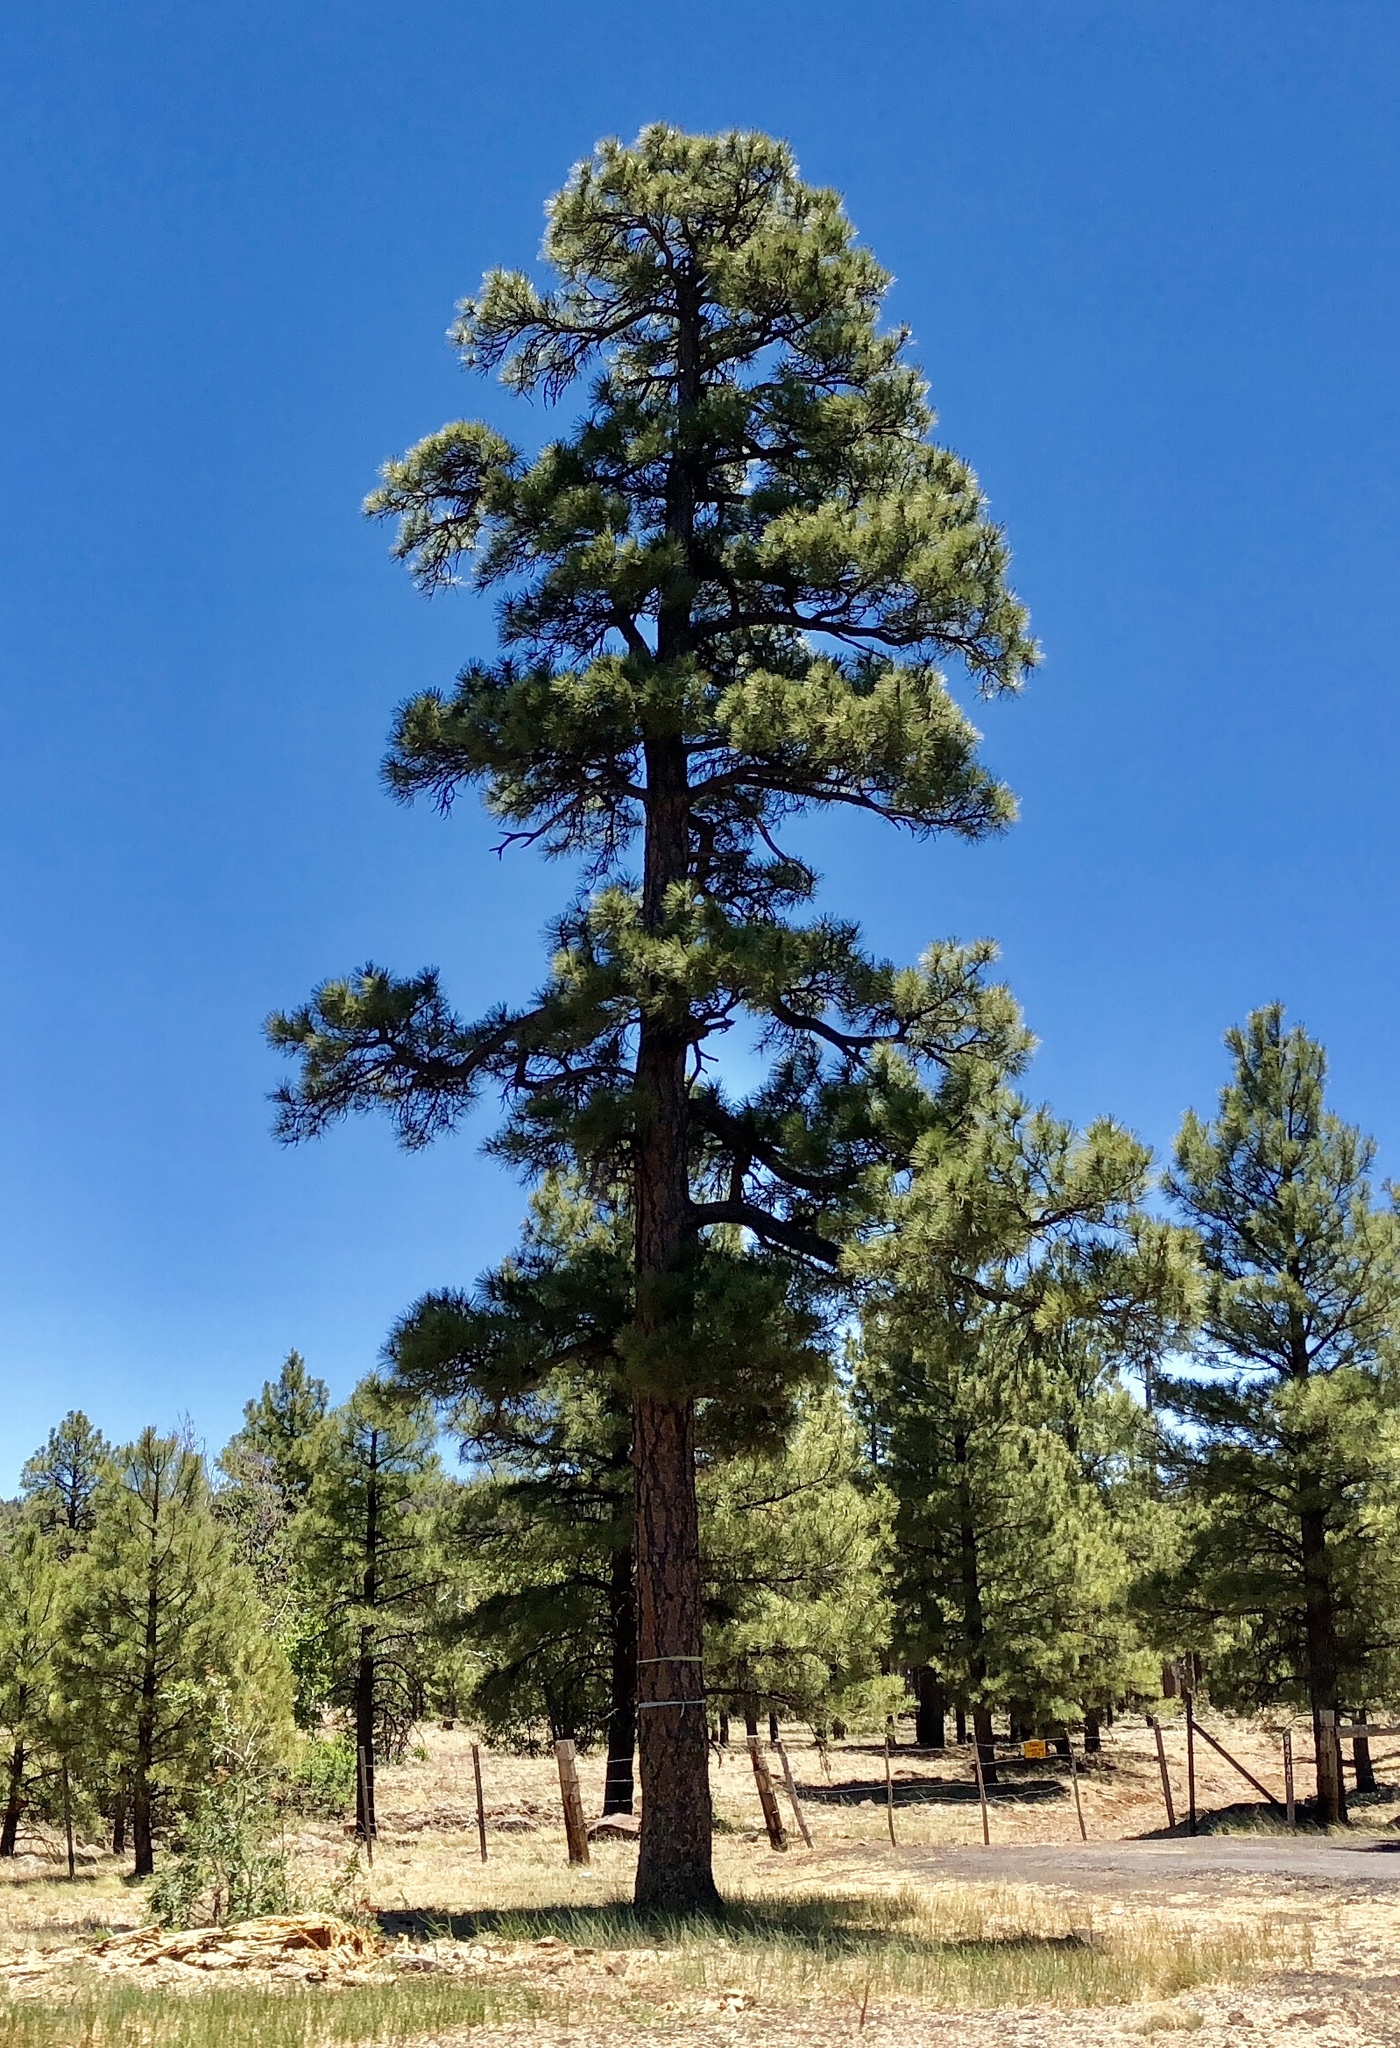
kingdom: Plantae
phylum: Tracheophyta
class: Pinopsida
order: Pinales
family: Pinaceae
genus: Pinus
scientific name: Pinus ponderosa
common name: Western yellow-pine
